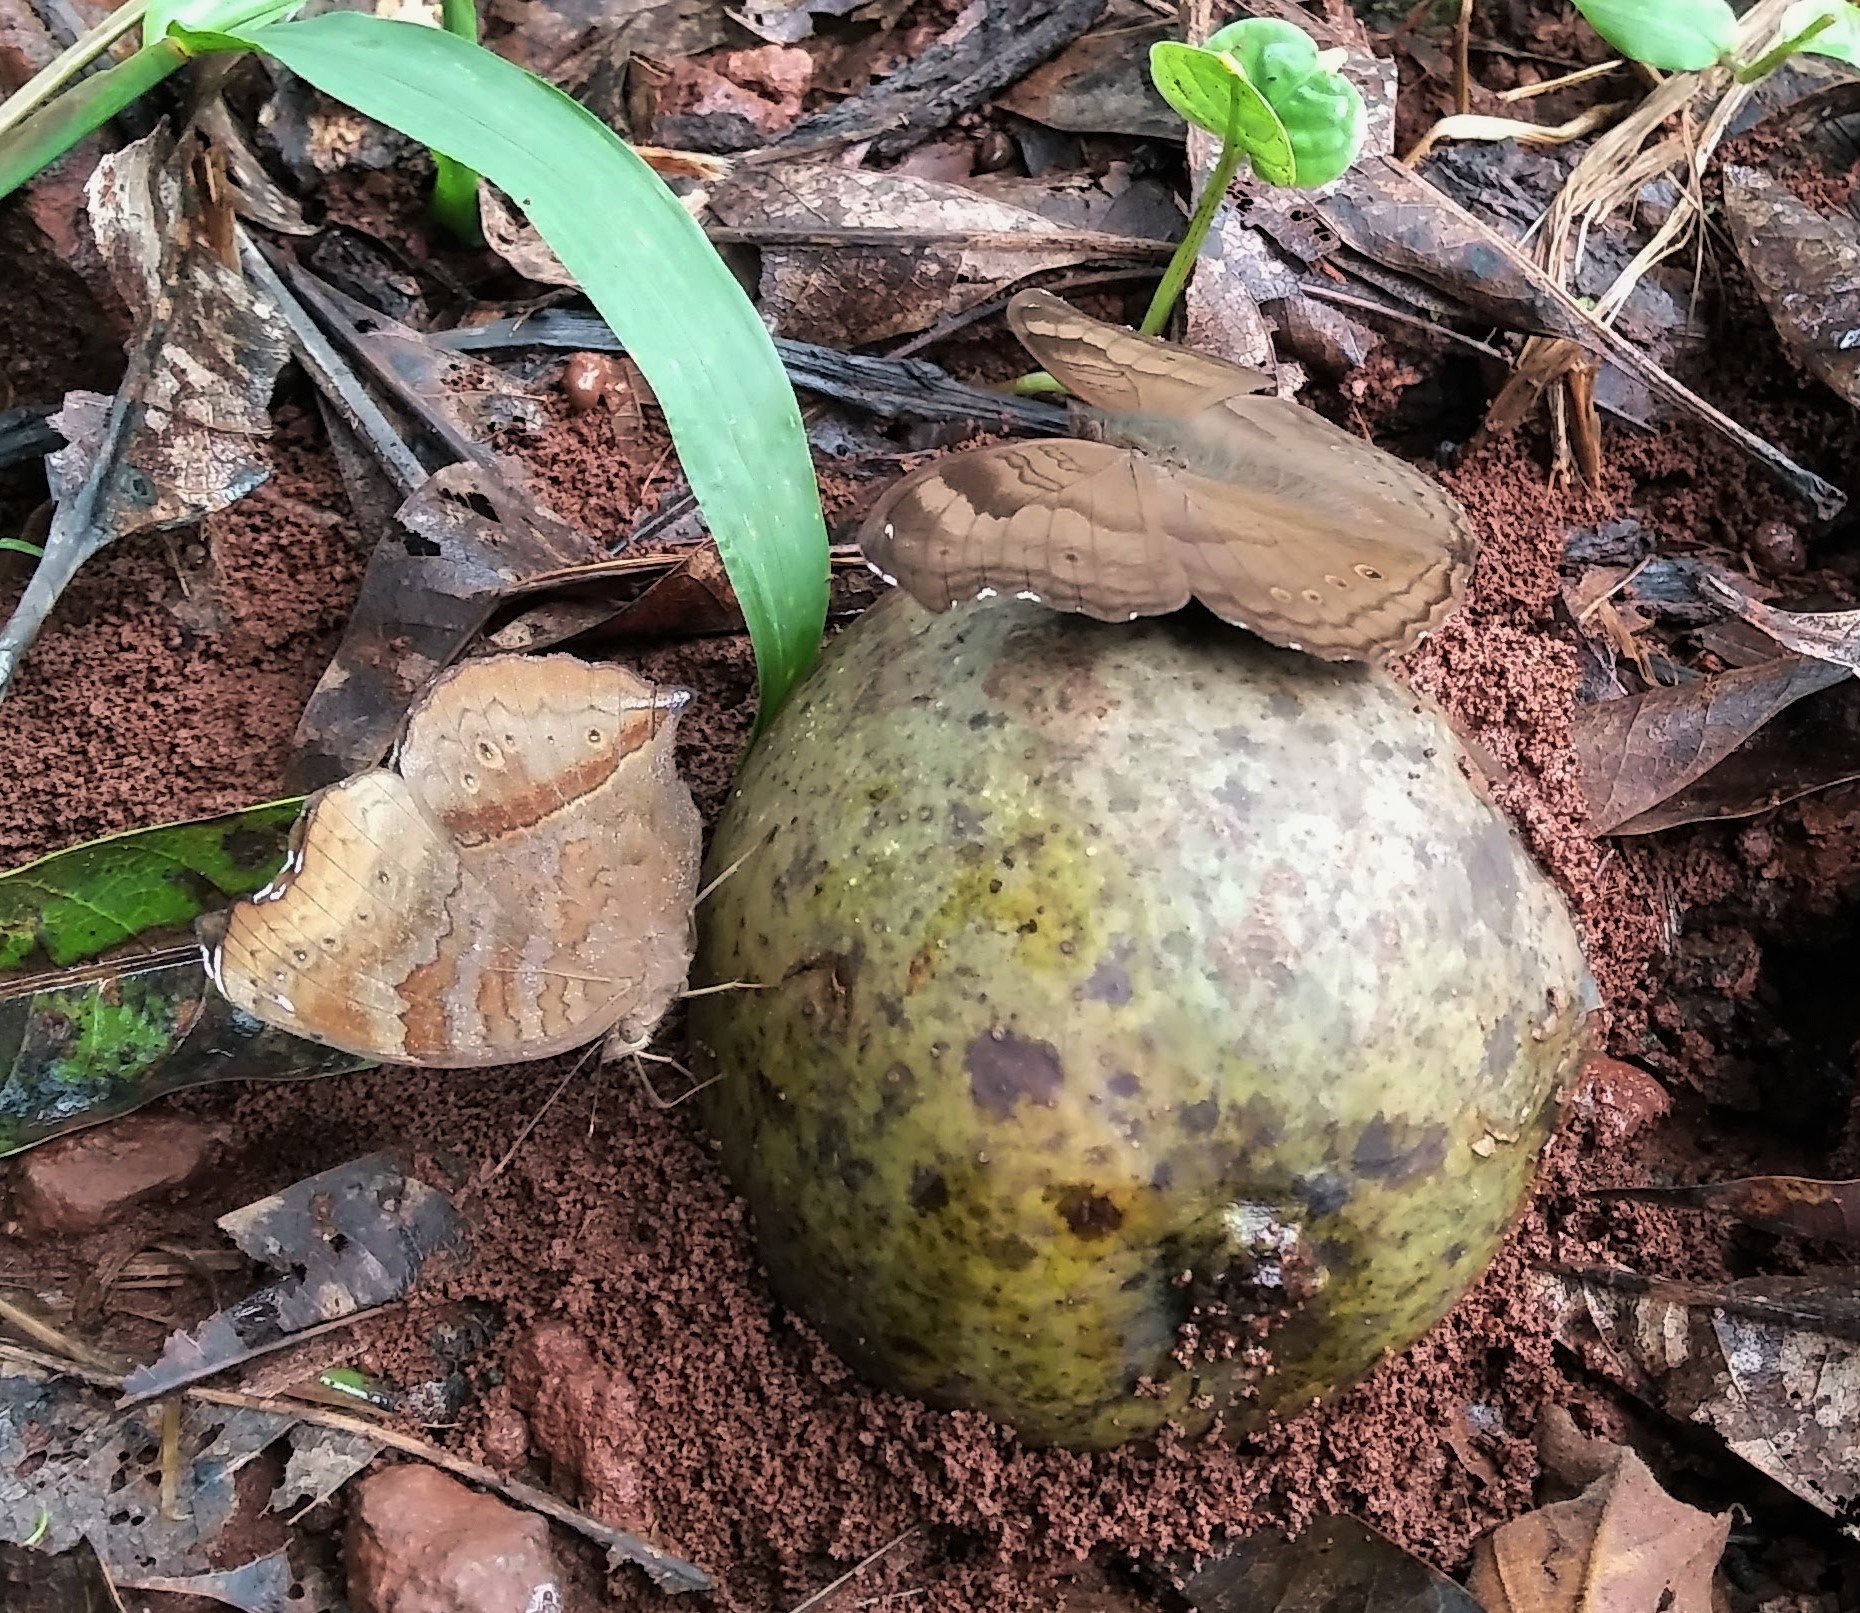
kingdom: Animalia
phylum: Arthropoda
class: Insecta
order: Lepidoptera
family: Nymphalidae
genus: Junonia
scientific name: Junonia iphita
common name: Chocolate pansy
